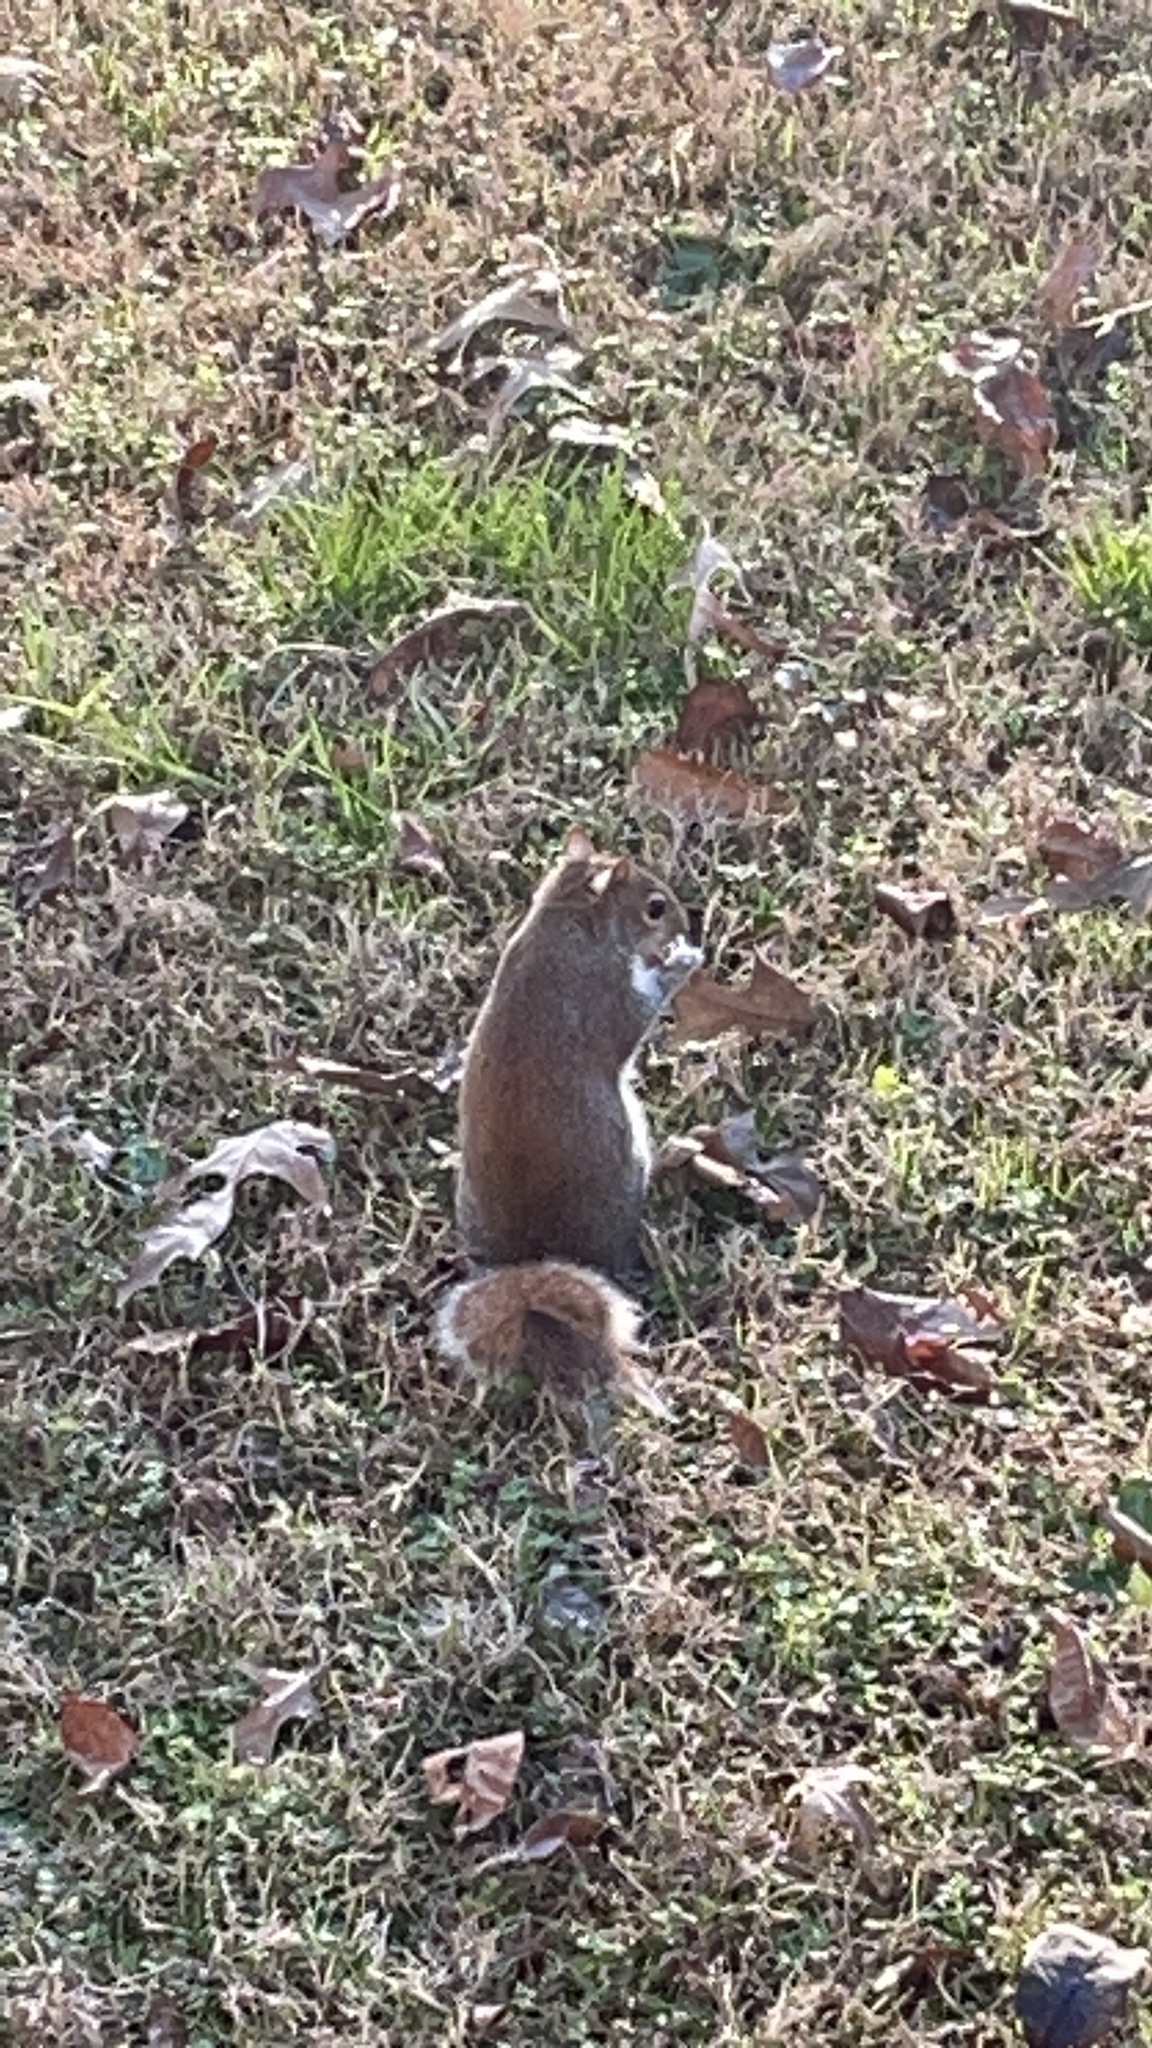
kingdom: Animalia
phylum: Chordata
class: Mammalia
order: Rodentia
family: Sciuridae
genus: Sciurus
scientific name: Sciurus carolinensis
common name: Eastern gray squirrel
